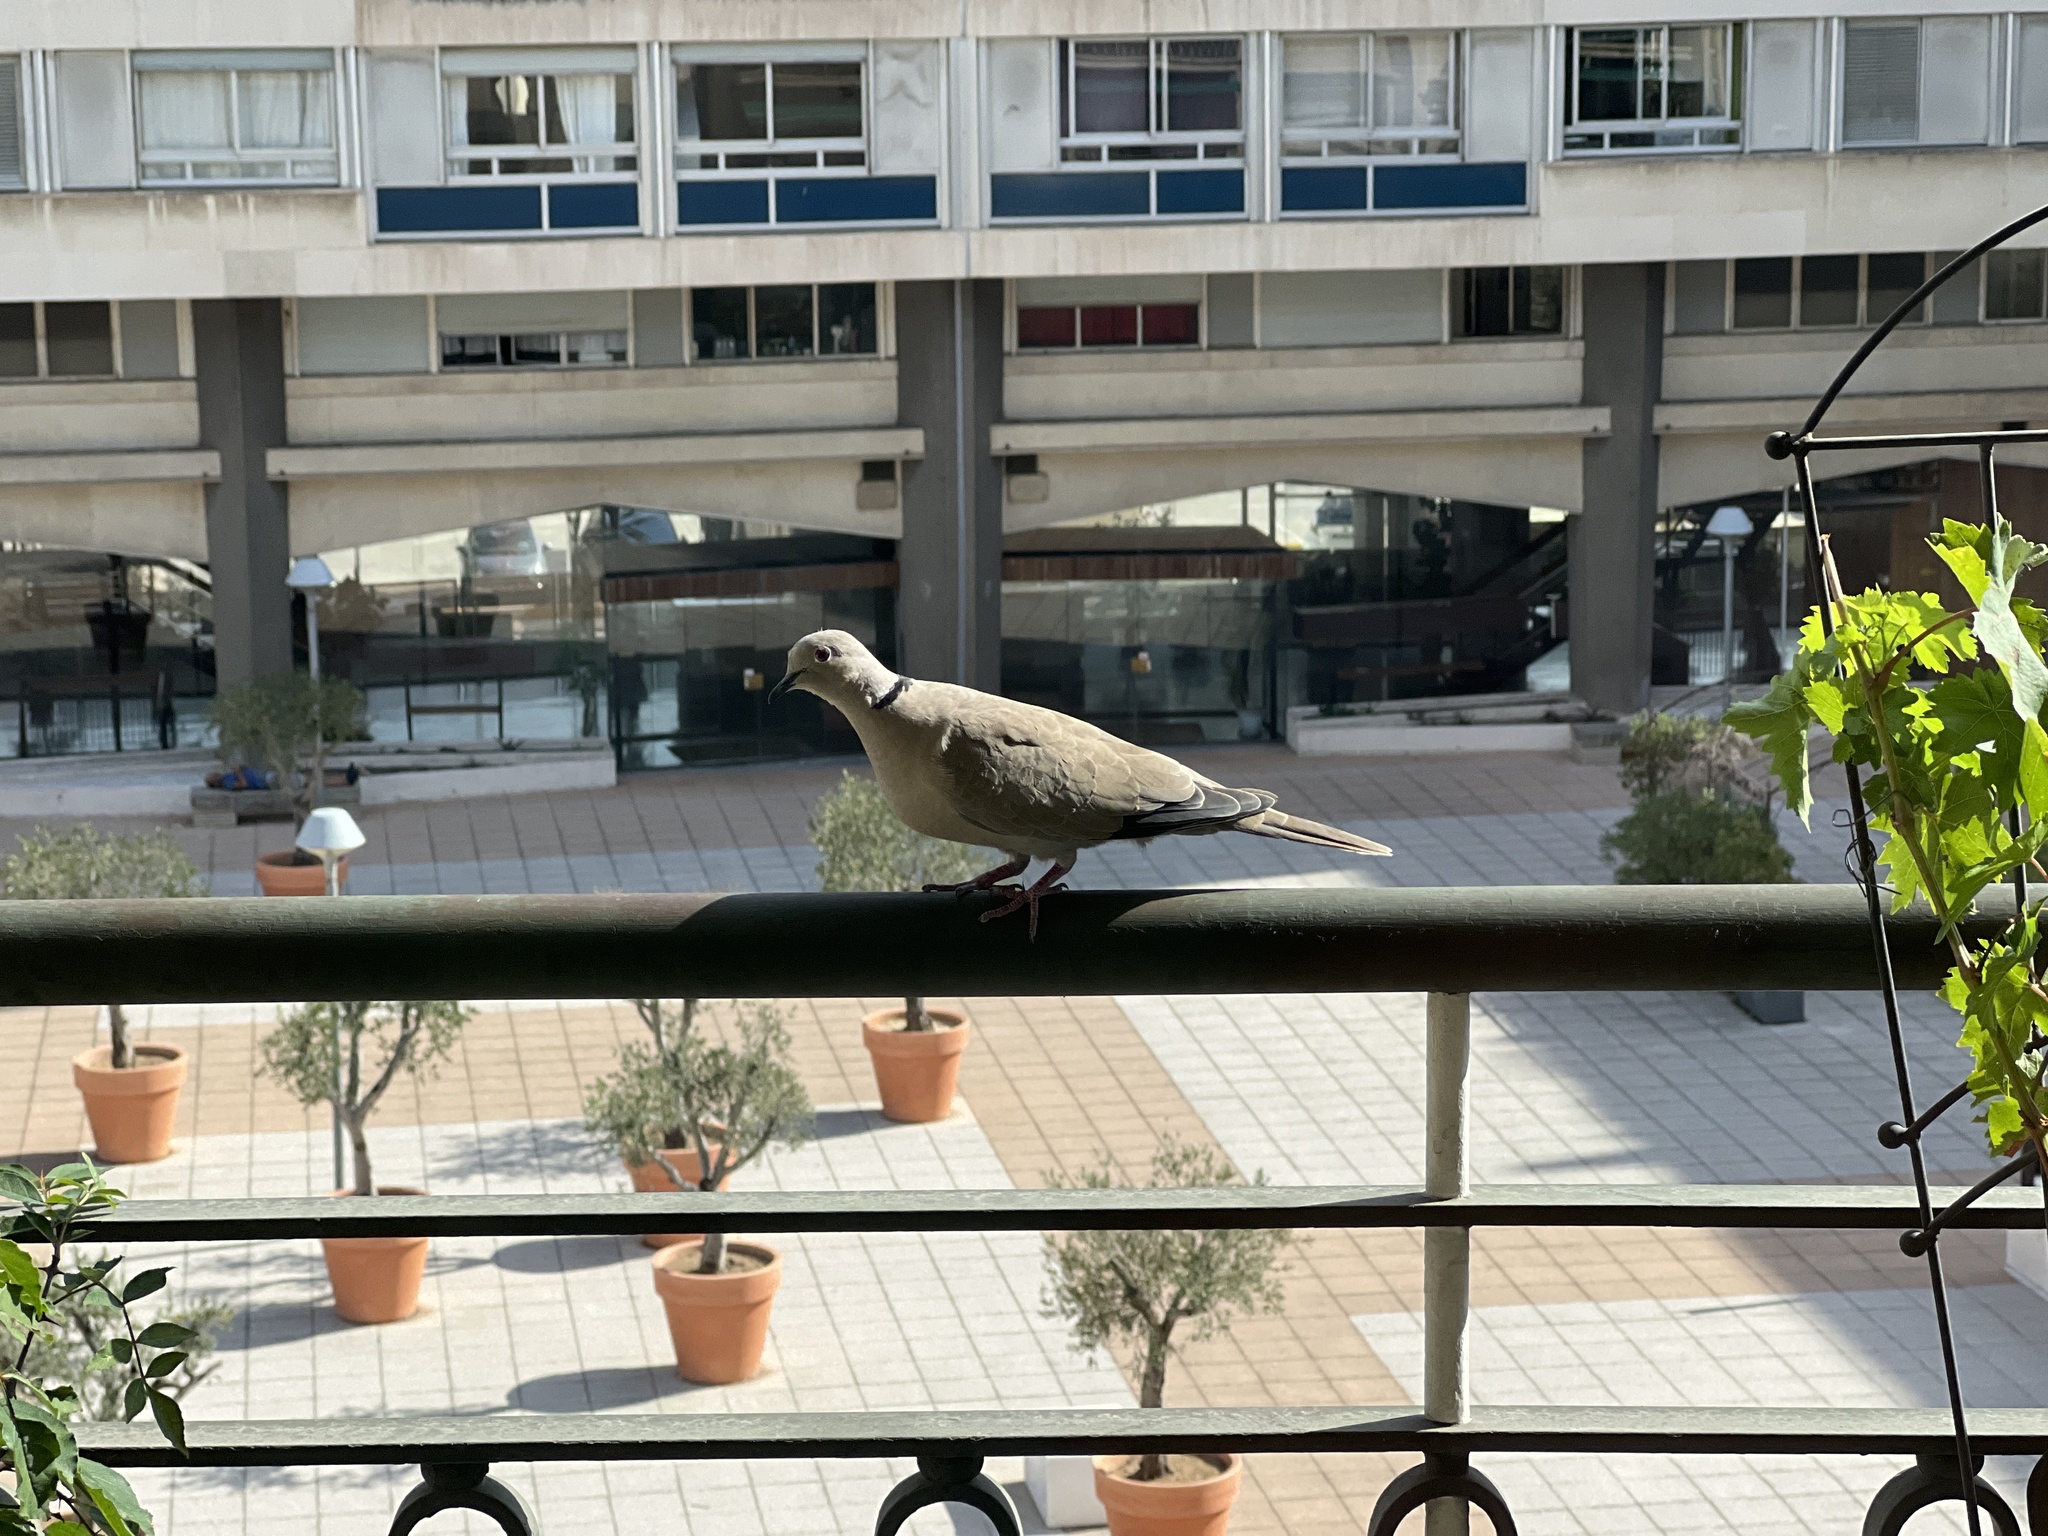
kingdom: Animalia
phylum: Chordata
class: Aves
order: Columbiformes
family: Columbidae
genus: Streptopelia
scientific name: Streptopelia decaocto
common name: Eurasian collared dove
